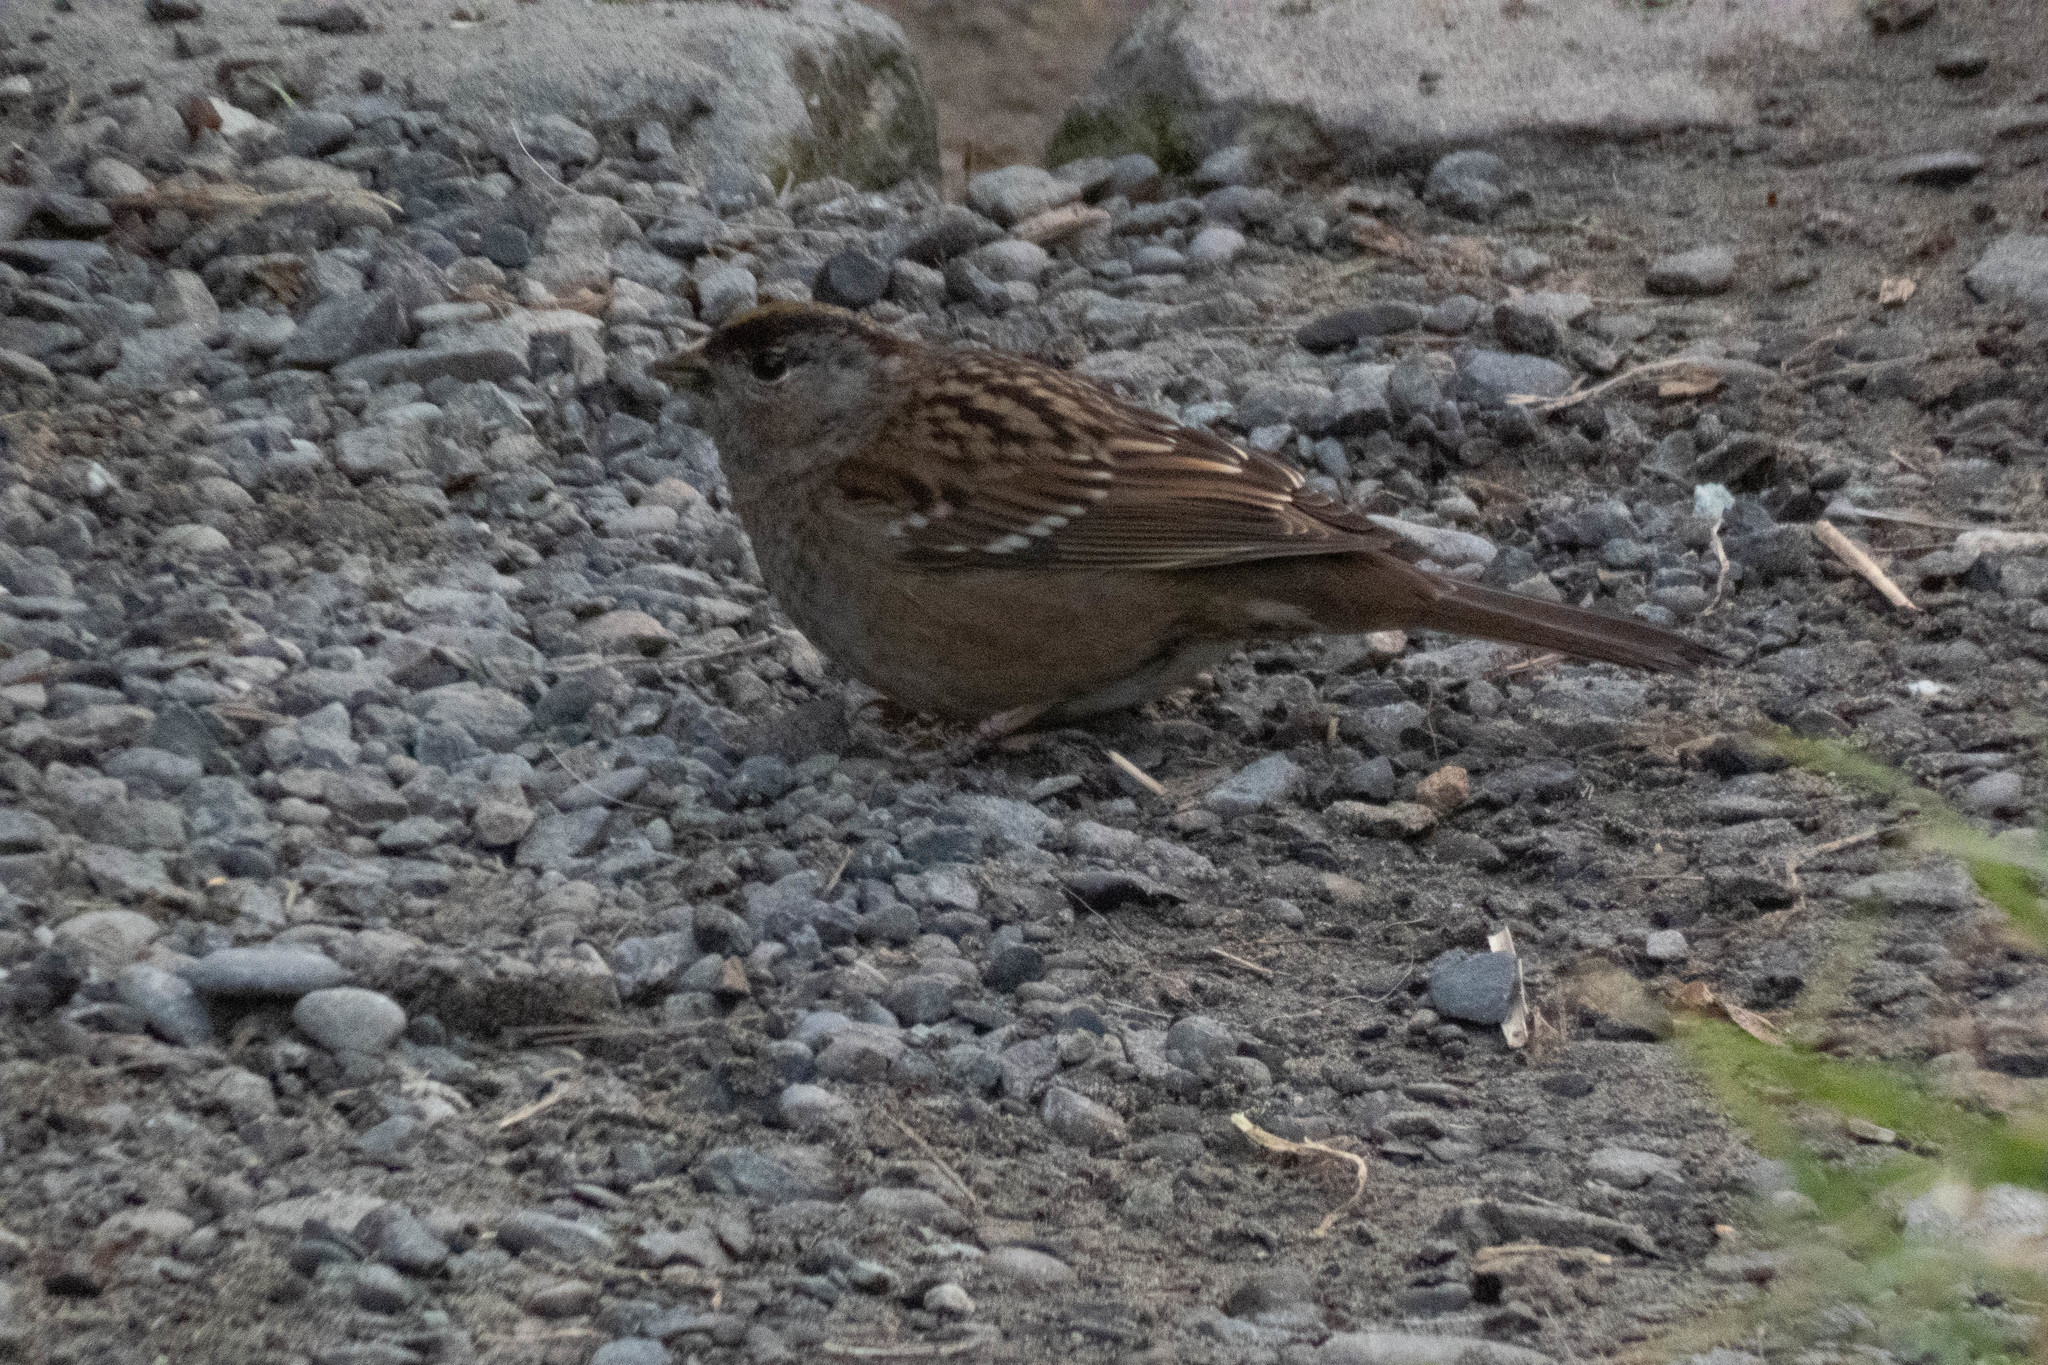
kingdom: Animalia
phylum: Chordata
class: Aves
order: Passeriformes
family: Passerellidae
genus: Zonotrichia
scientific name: Zonotrichia atricapilla
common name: Golden-crowned sparrow
